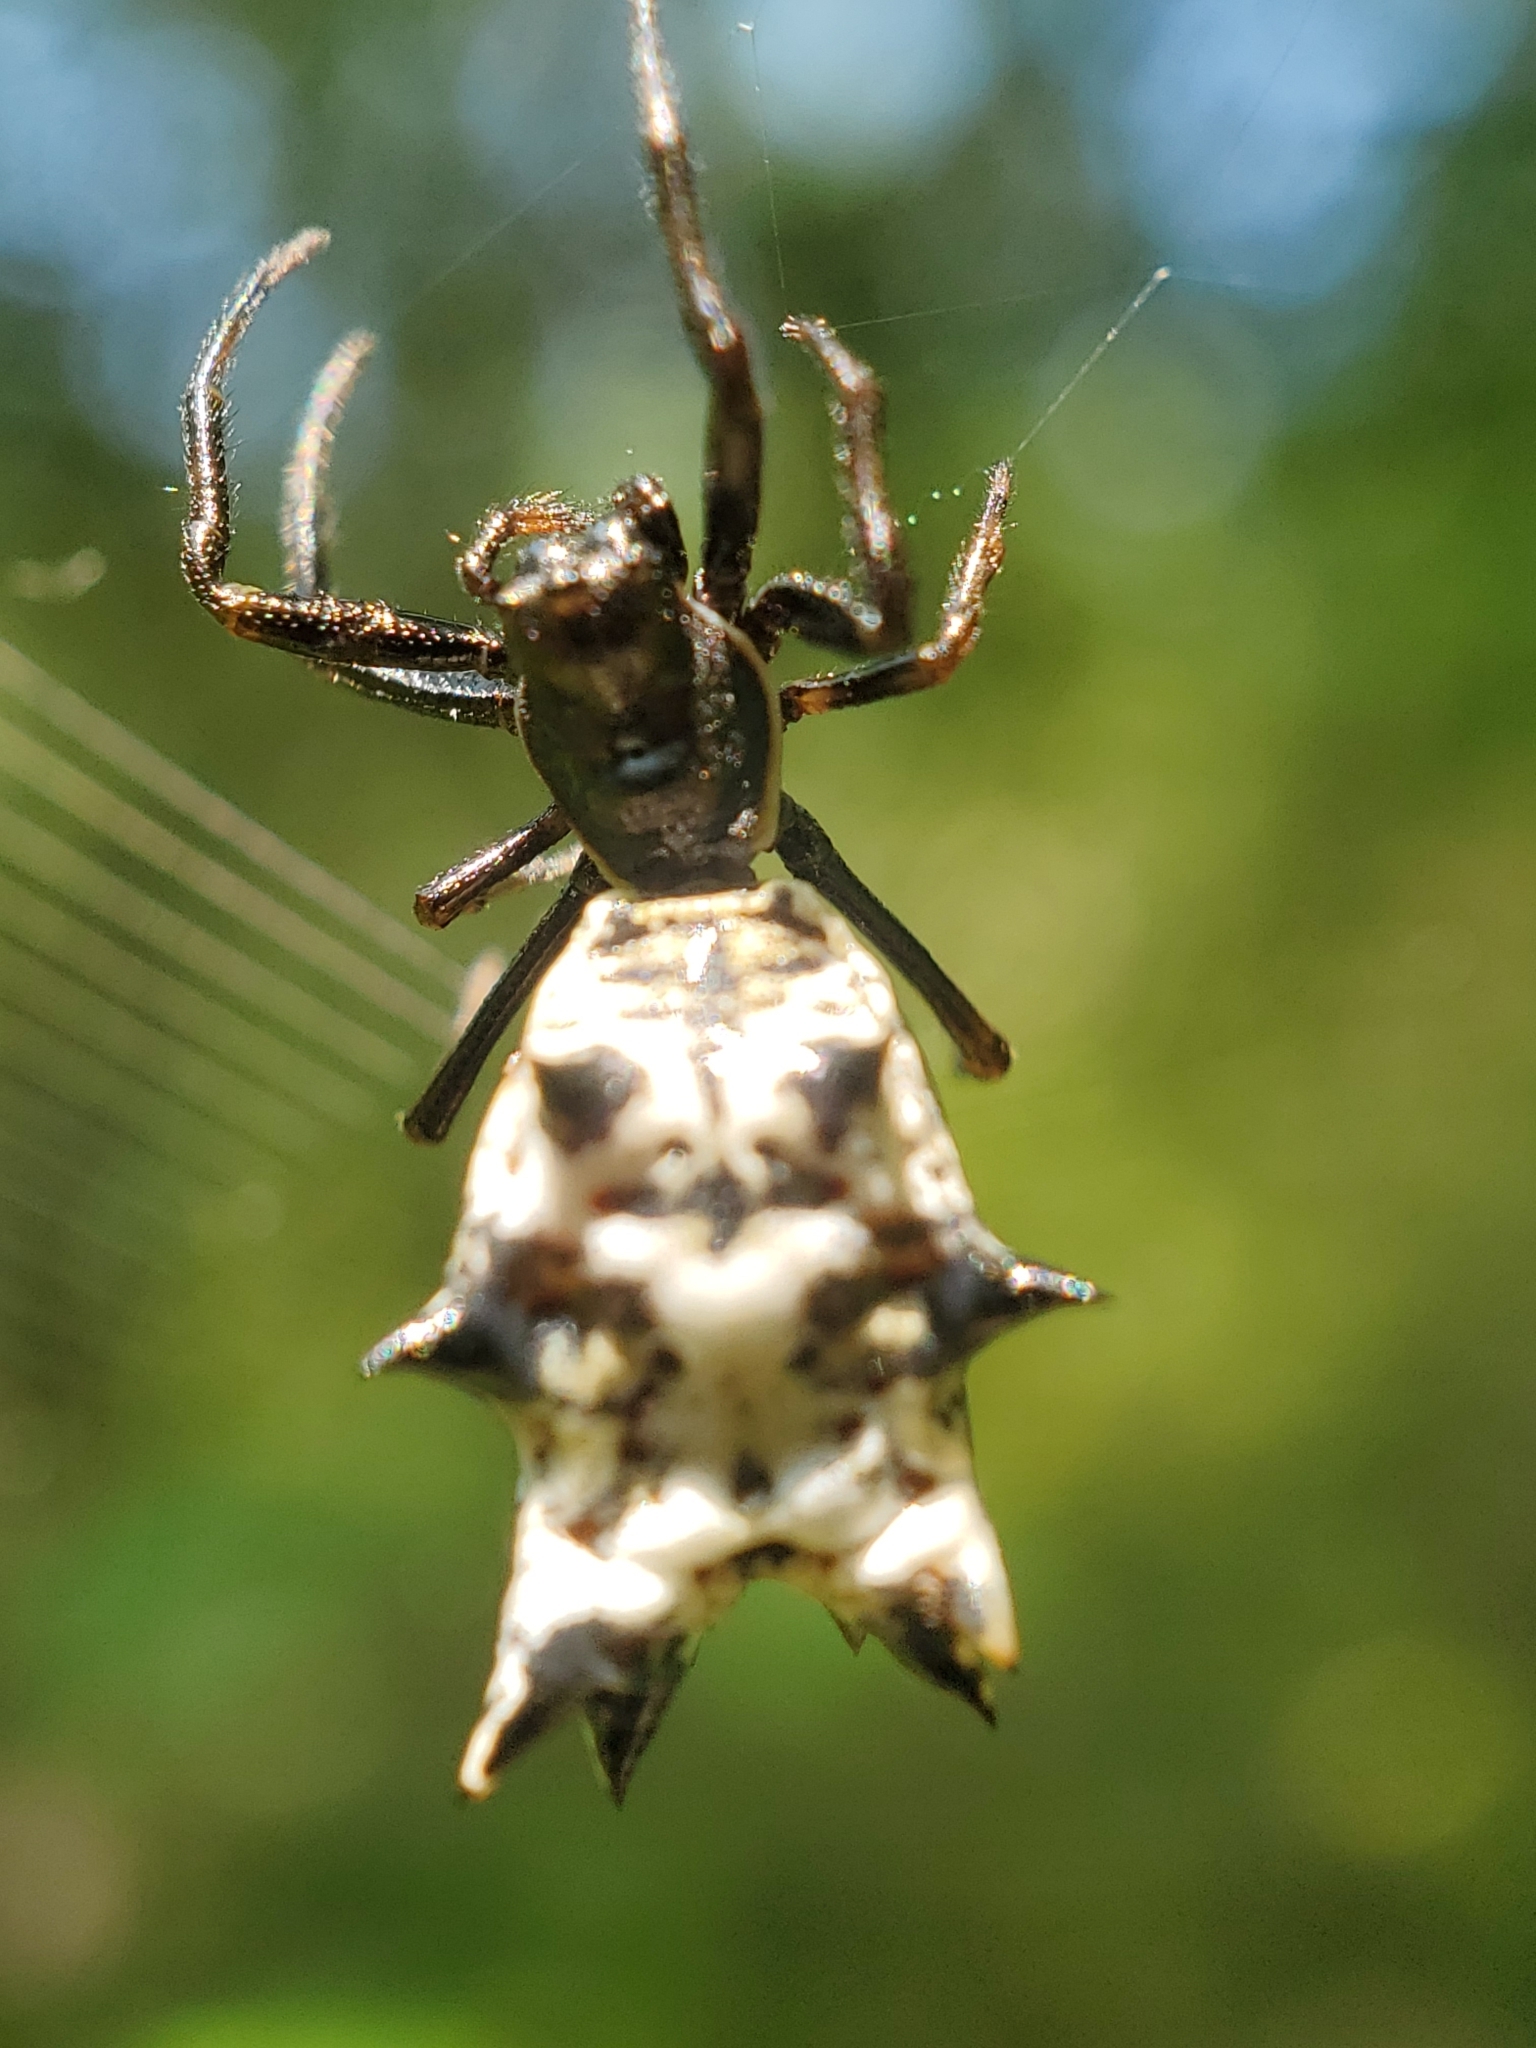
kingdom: Animalia
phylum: Arthropoda
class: Arachnida
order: Araneae
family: Araneidae
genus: Micrathena
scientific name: Micrathena gracilis
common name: Orb weavers
